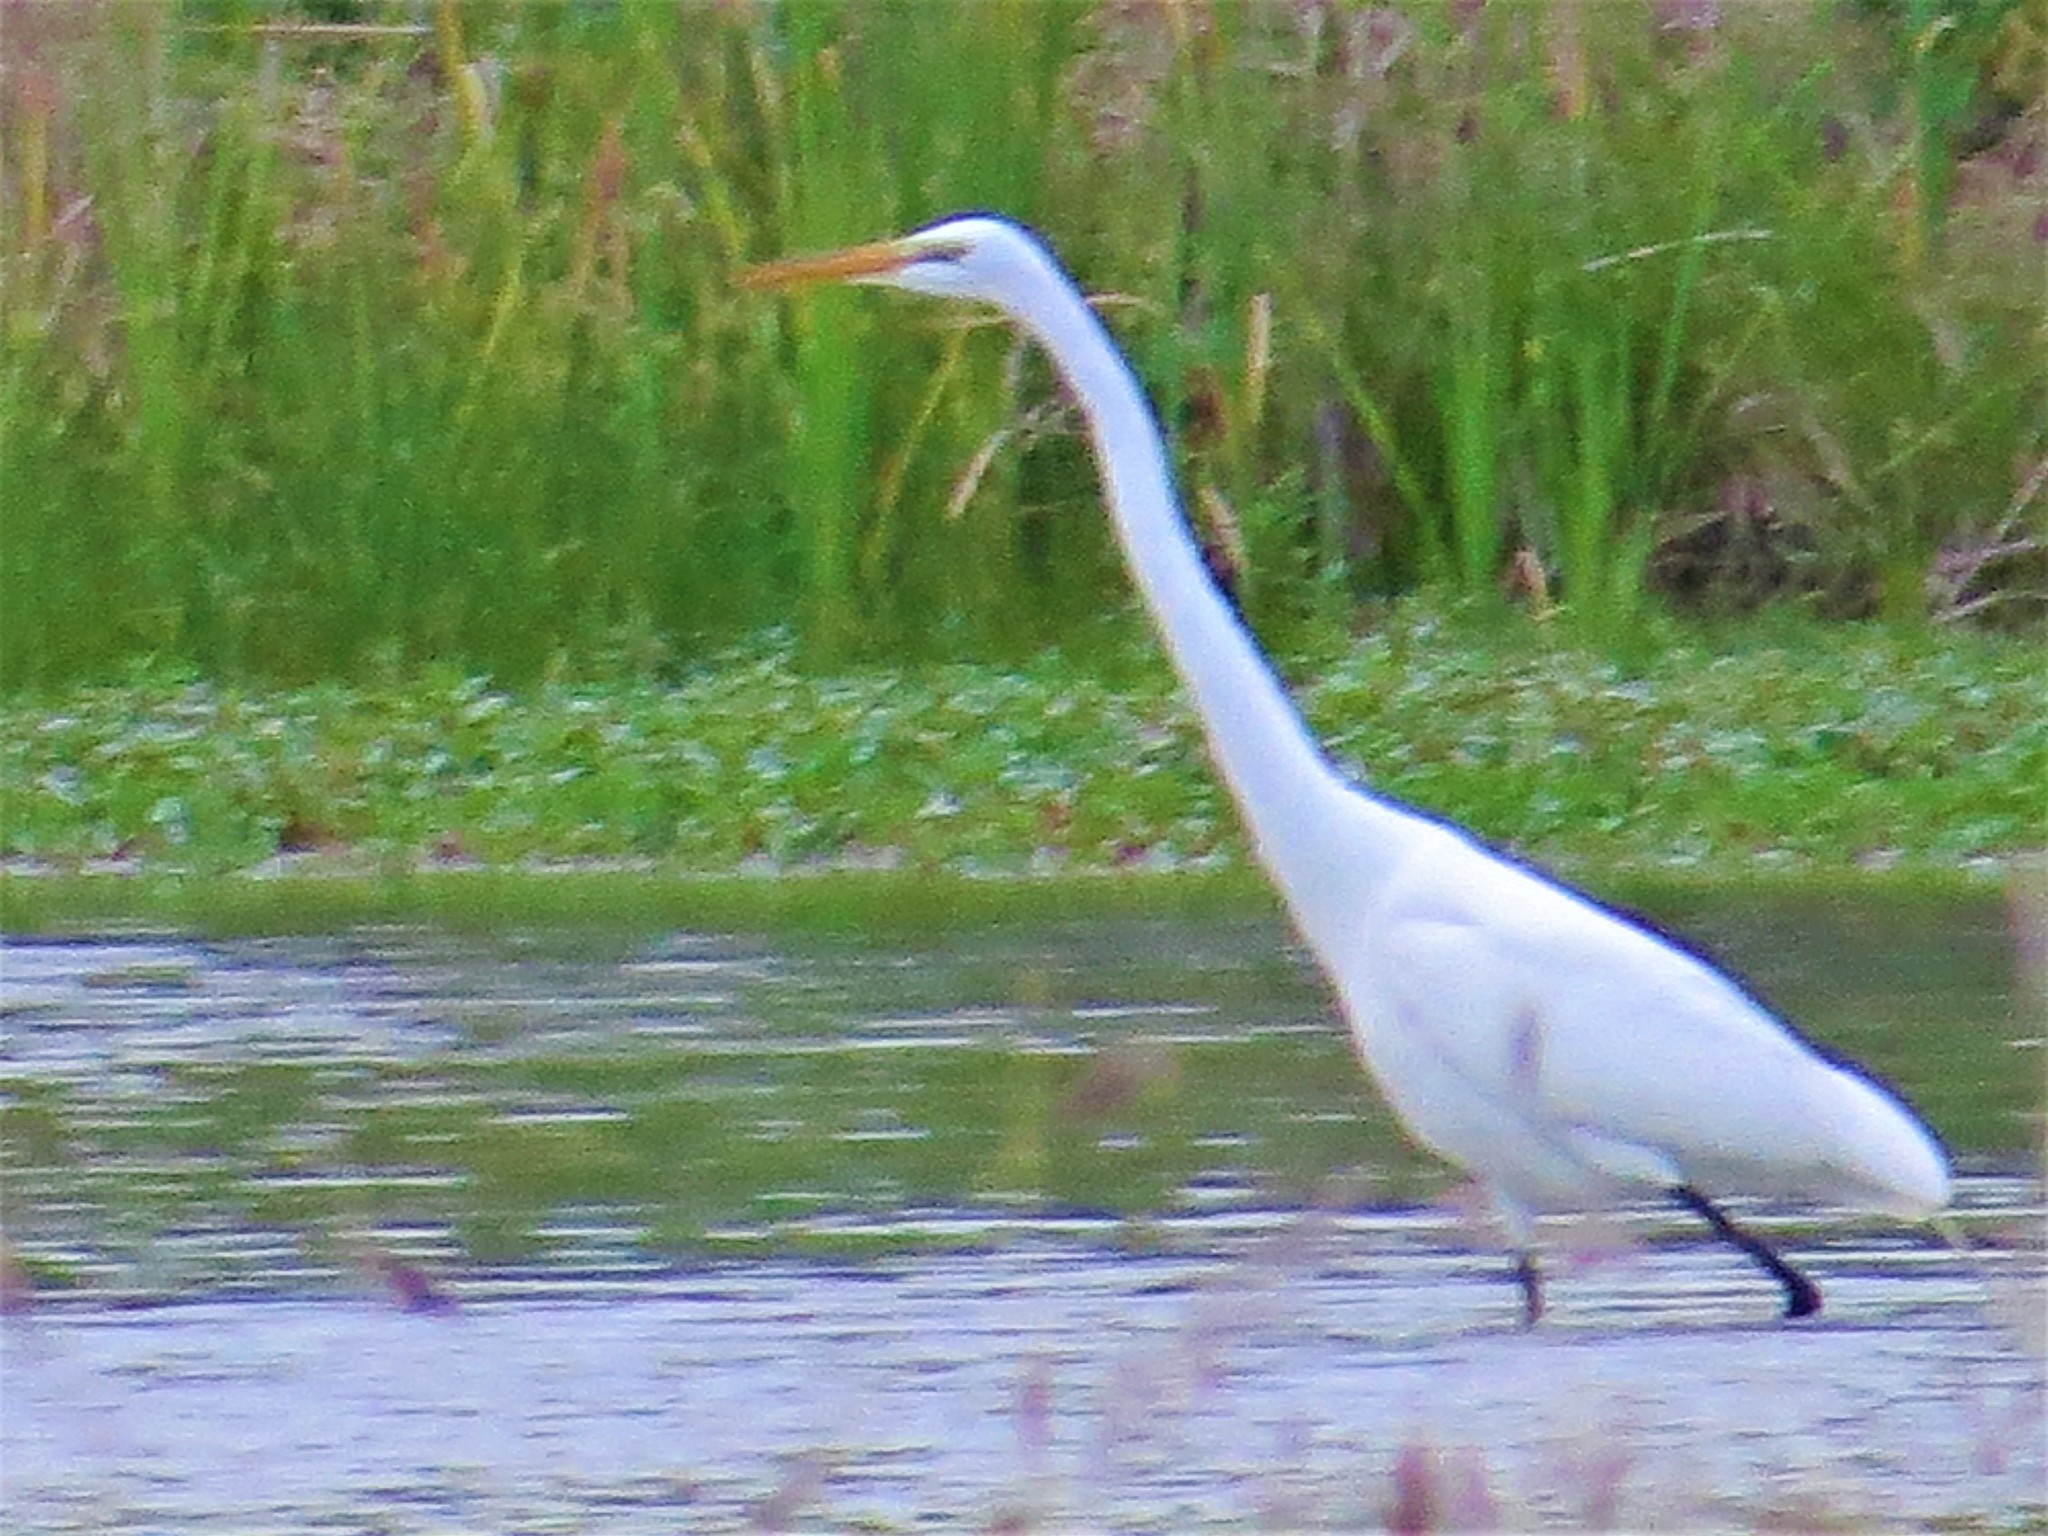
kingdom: Animalia
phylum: Chordata
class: Aves
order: Pelecaniformes
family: Ardeidae
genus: Ardea
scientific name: Ardea alba
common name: Great egret
